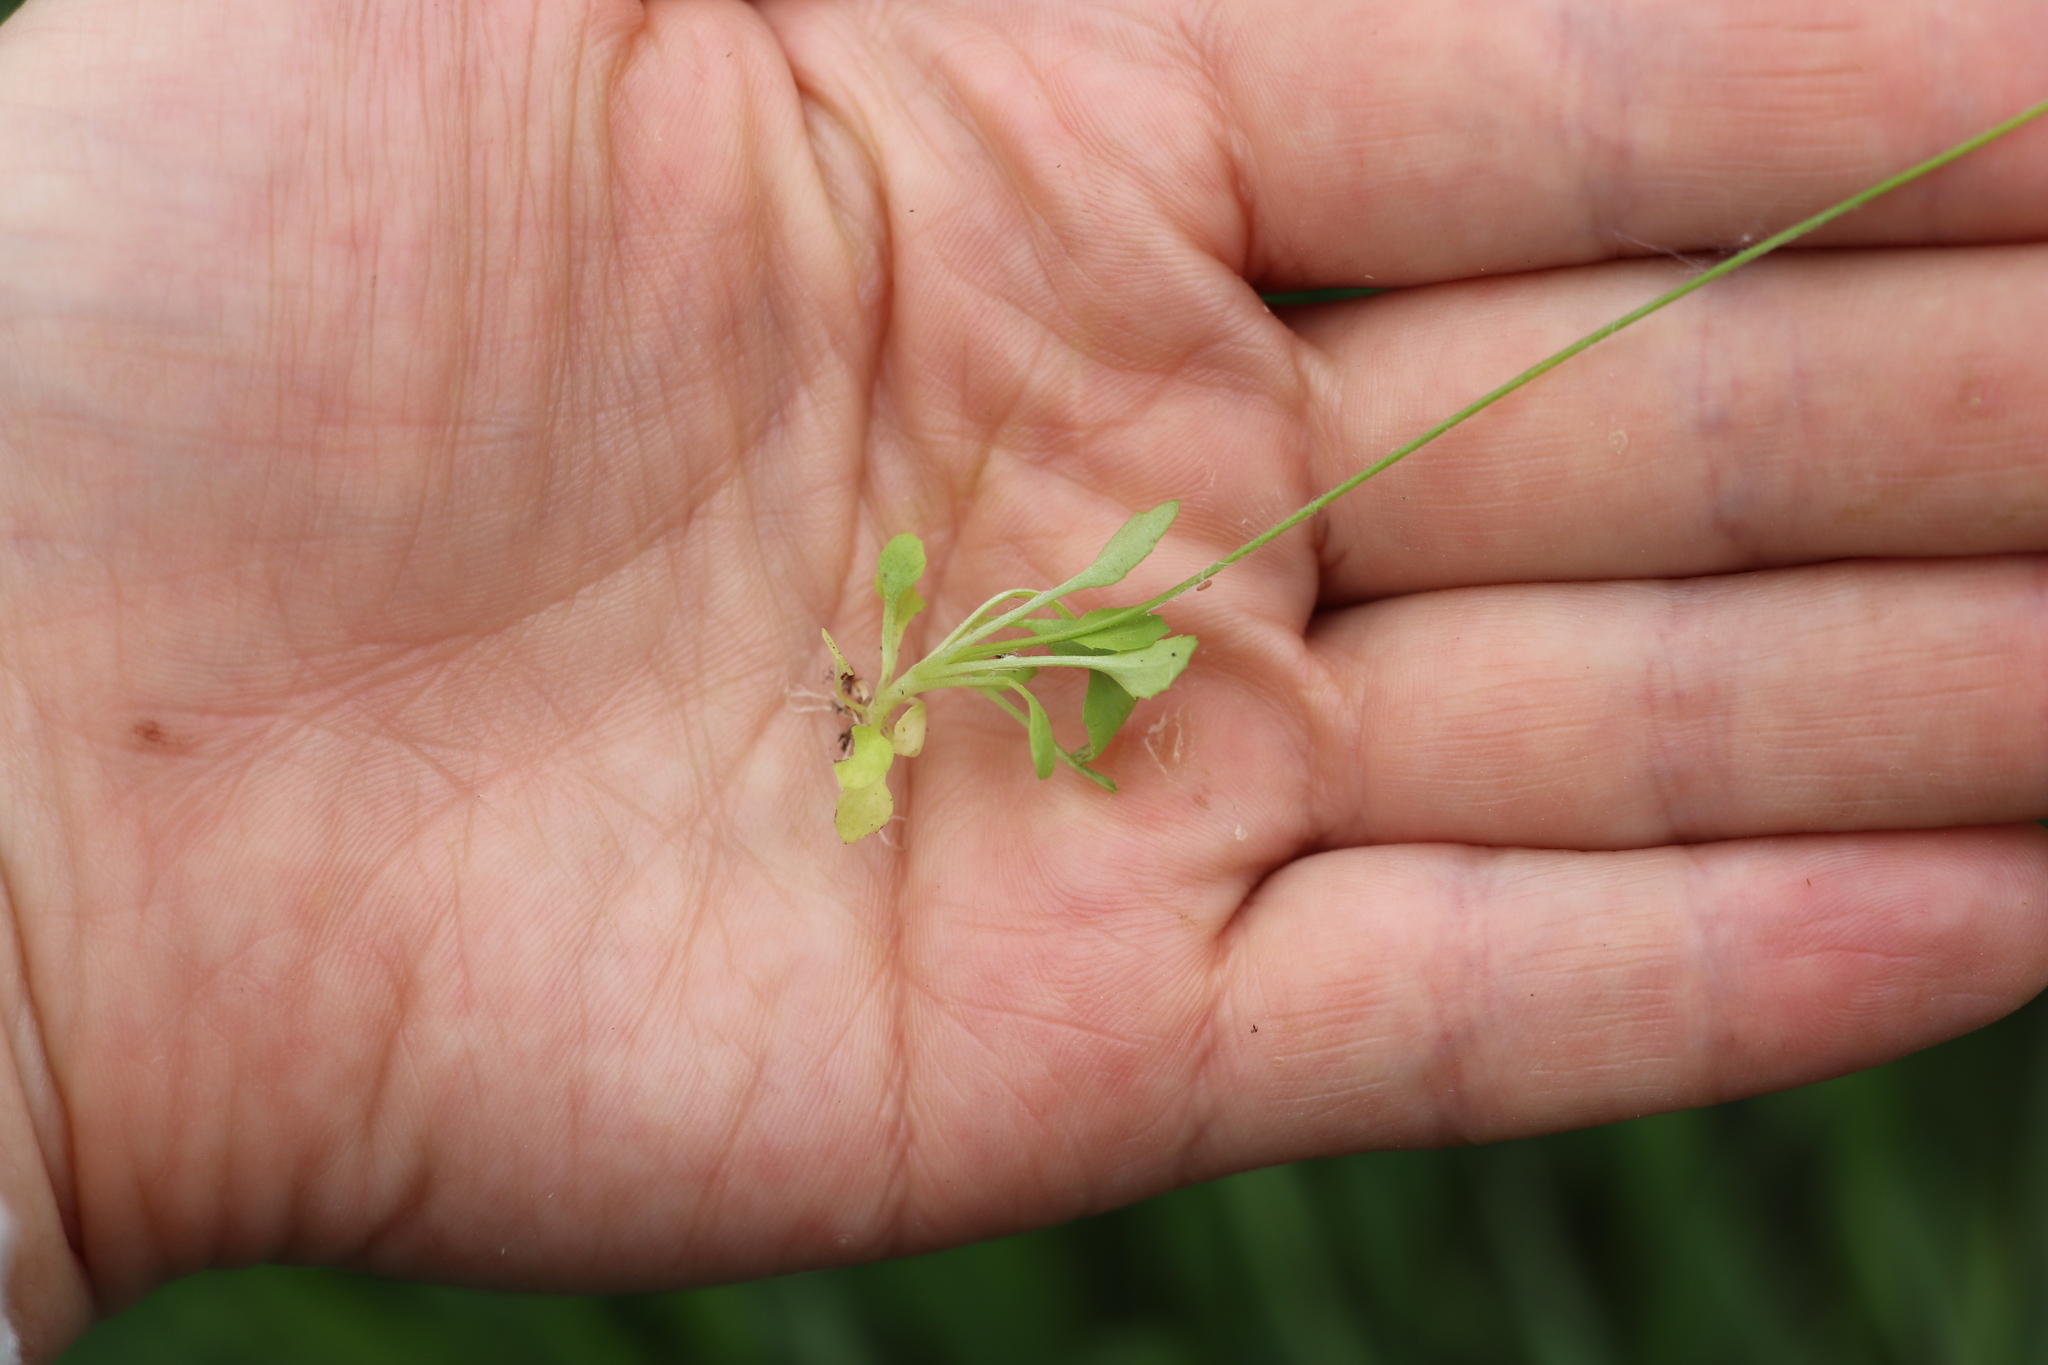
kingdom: Plantae
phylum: Tracheophyta
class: Magnoliopsida
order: Ericales
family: Primulaceae
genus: Androsace
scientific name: Androsace filiformis
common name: Filiform rock jasmine
